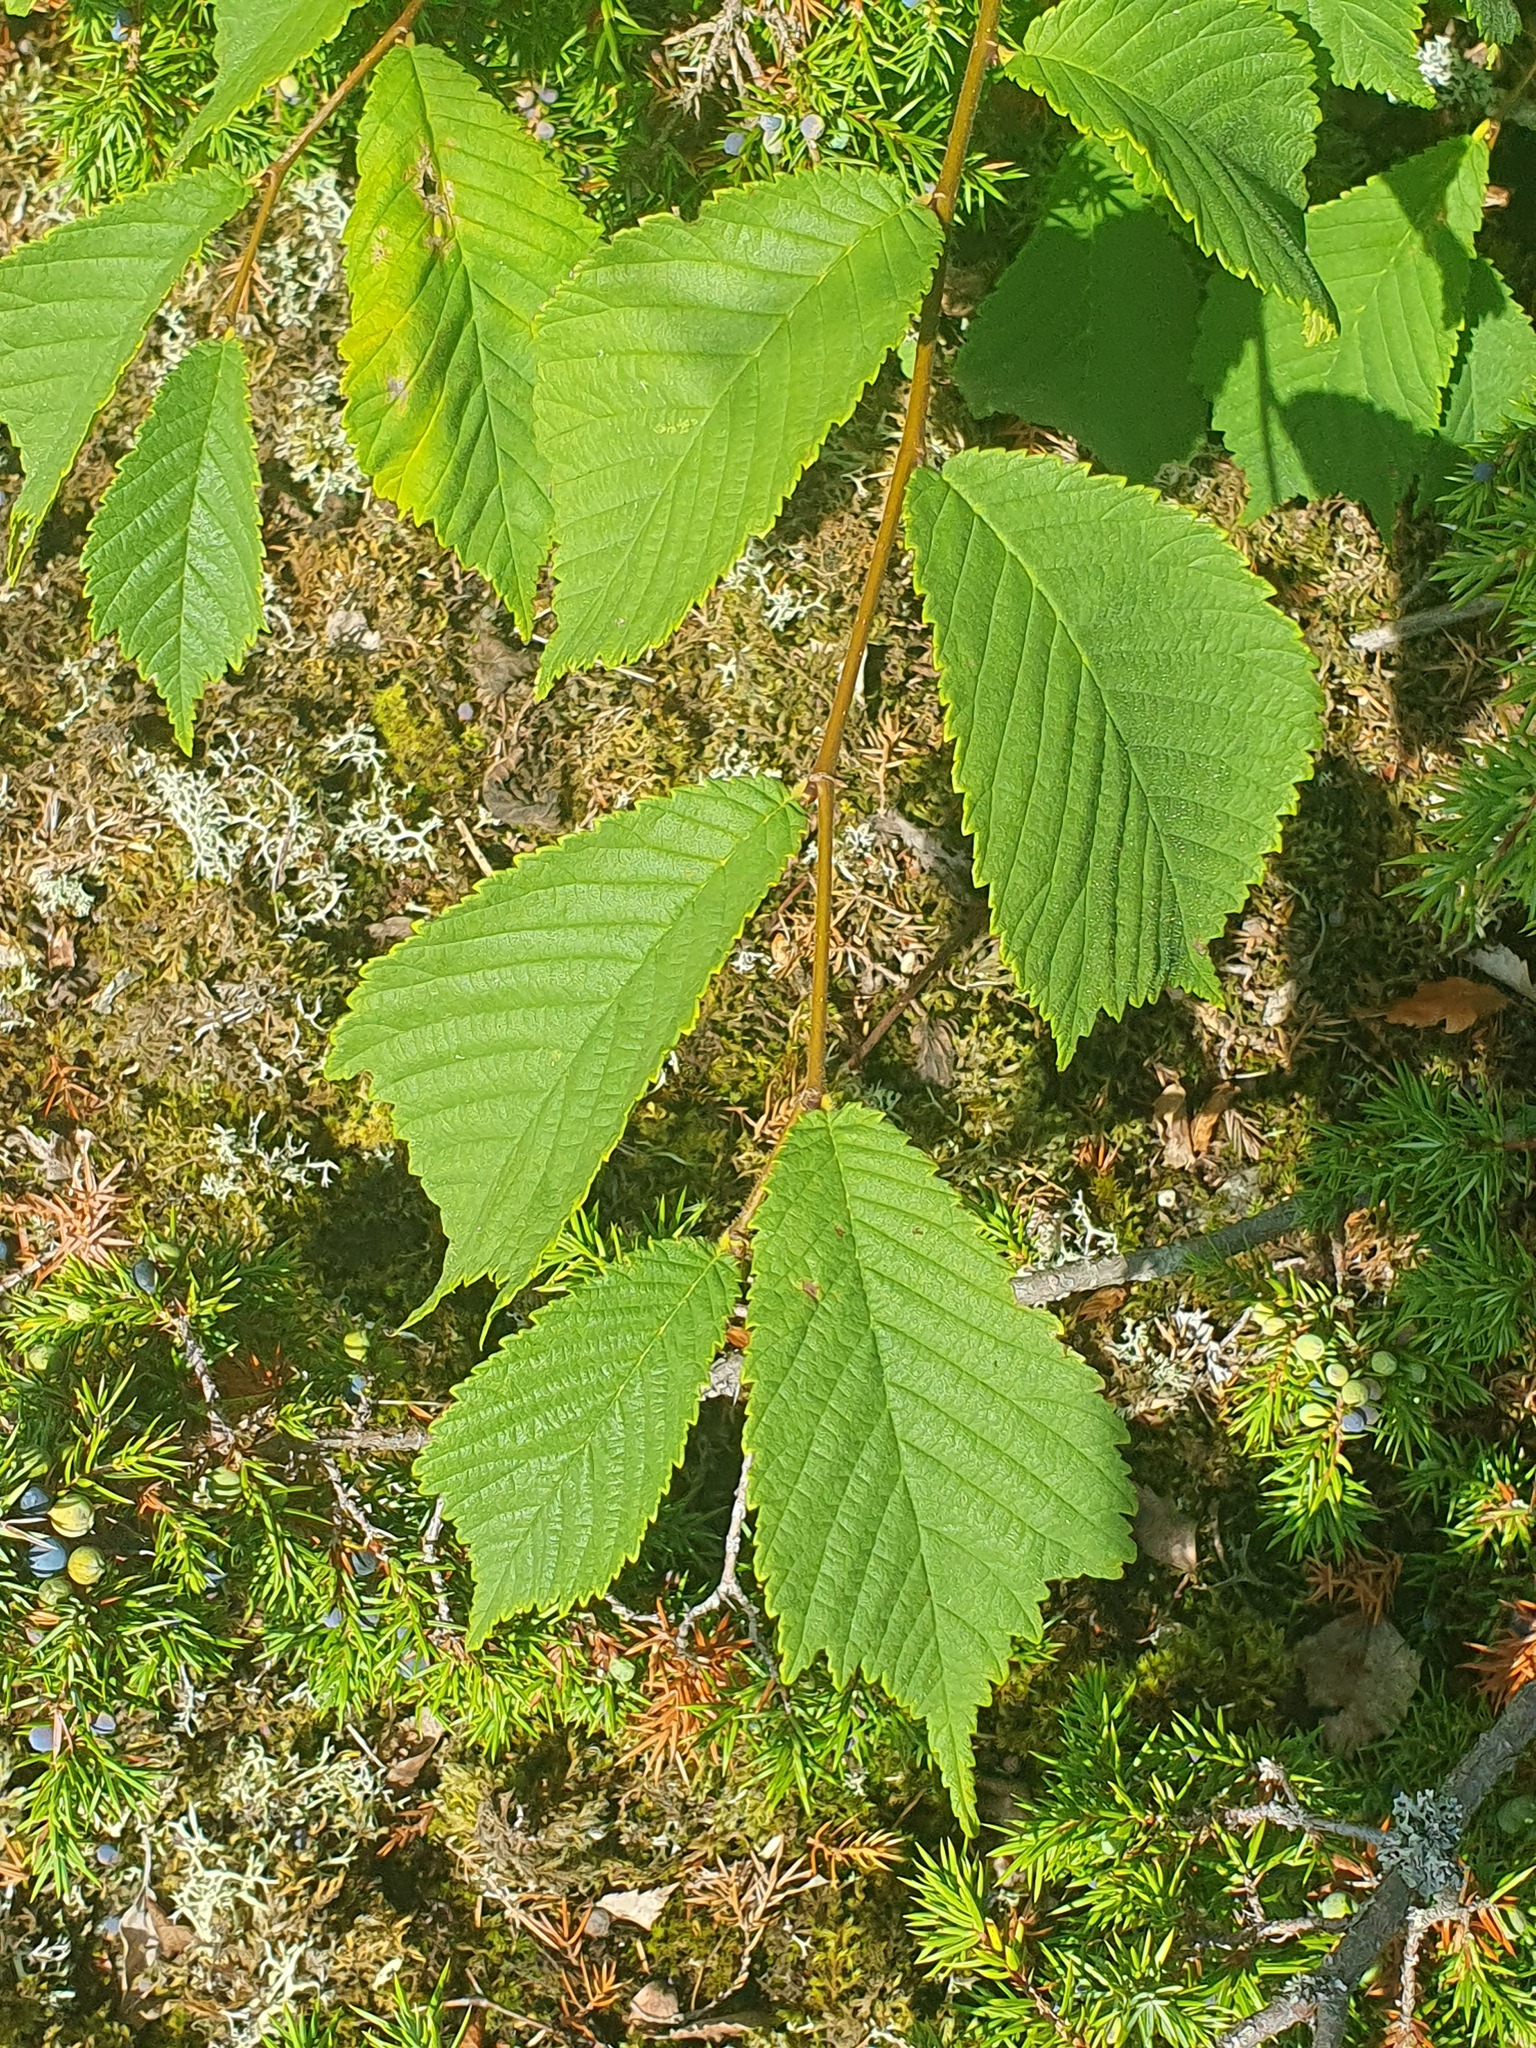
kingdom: Plantae
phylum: Tracheophyta
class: Magnoliopsida
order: Rosales
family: Ulmaceae
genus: Ulmus
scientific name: Ulmus glabra
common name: Wych elm
